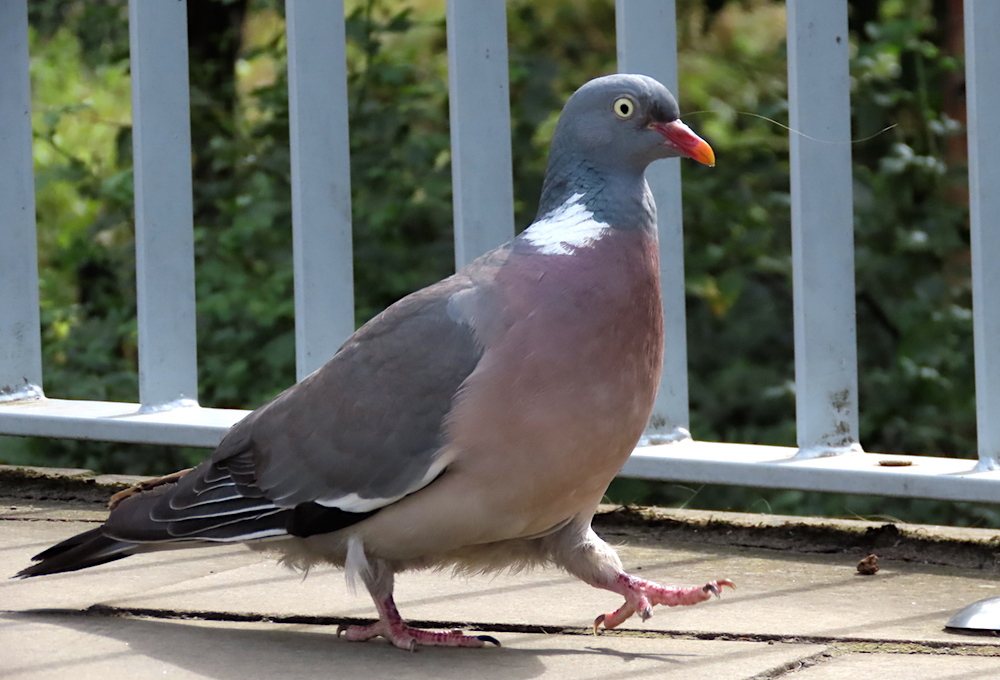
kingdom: Animalia
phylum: Chordata
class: Aves
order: Columbiformes
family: Columbidae
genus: Columba
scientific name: Columba palumbus
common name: Common wood pigeon
